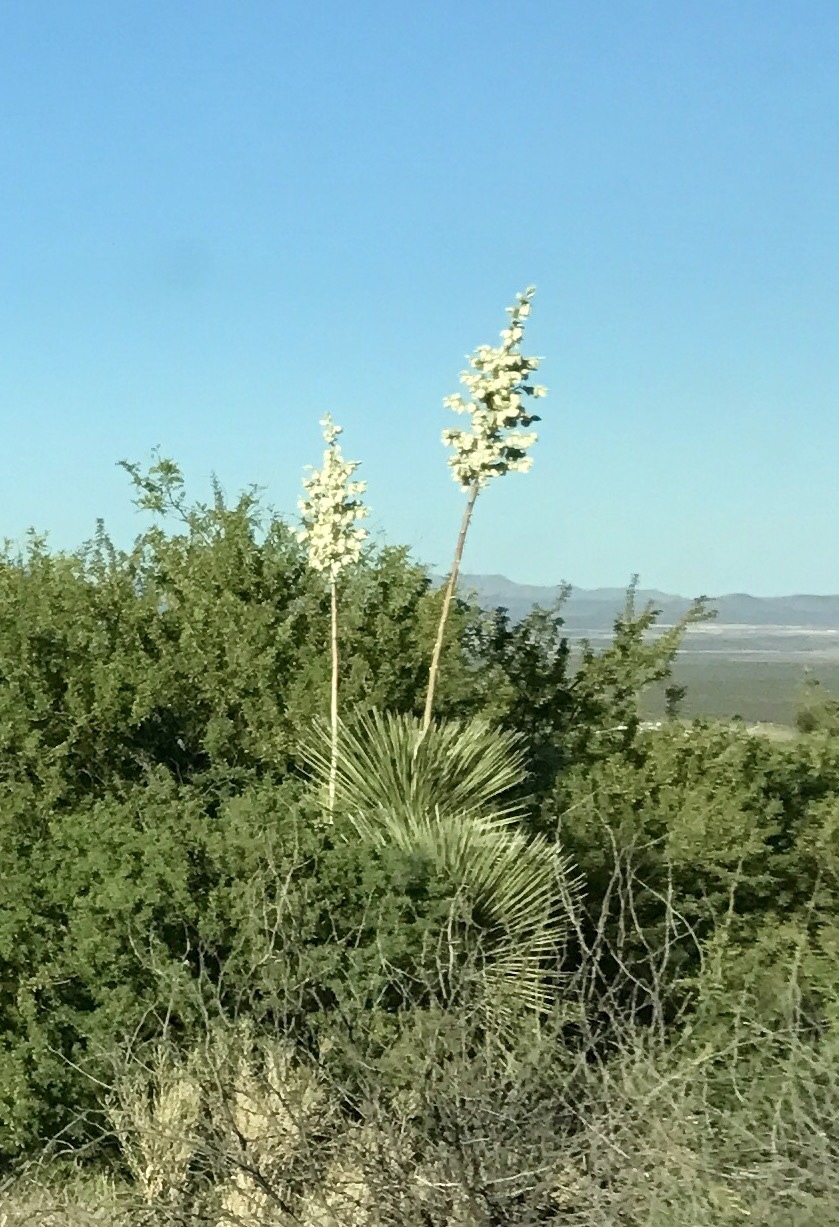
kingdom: Plantae
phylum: Tracheophyta
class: Liliopsida
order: Asparagales
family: Asparagaceae
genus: Yucca
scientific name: Yucca elata
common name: Palmella
